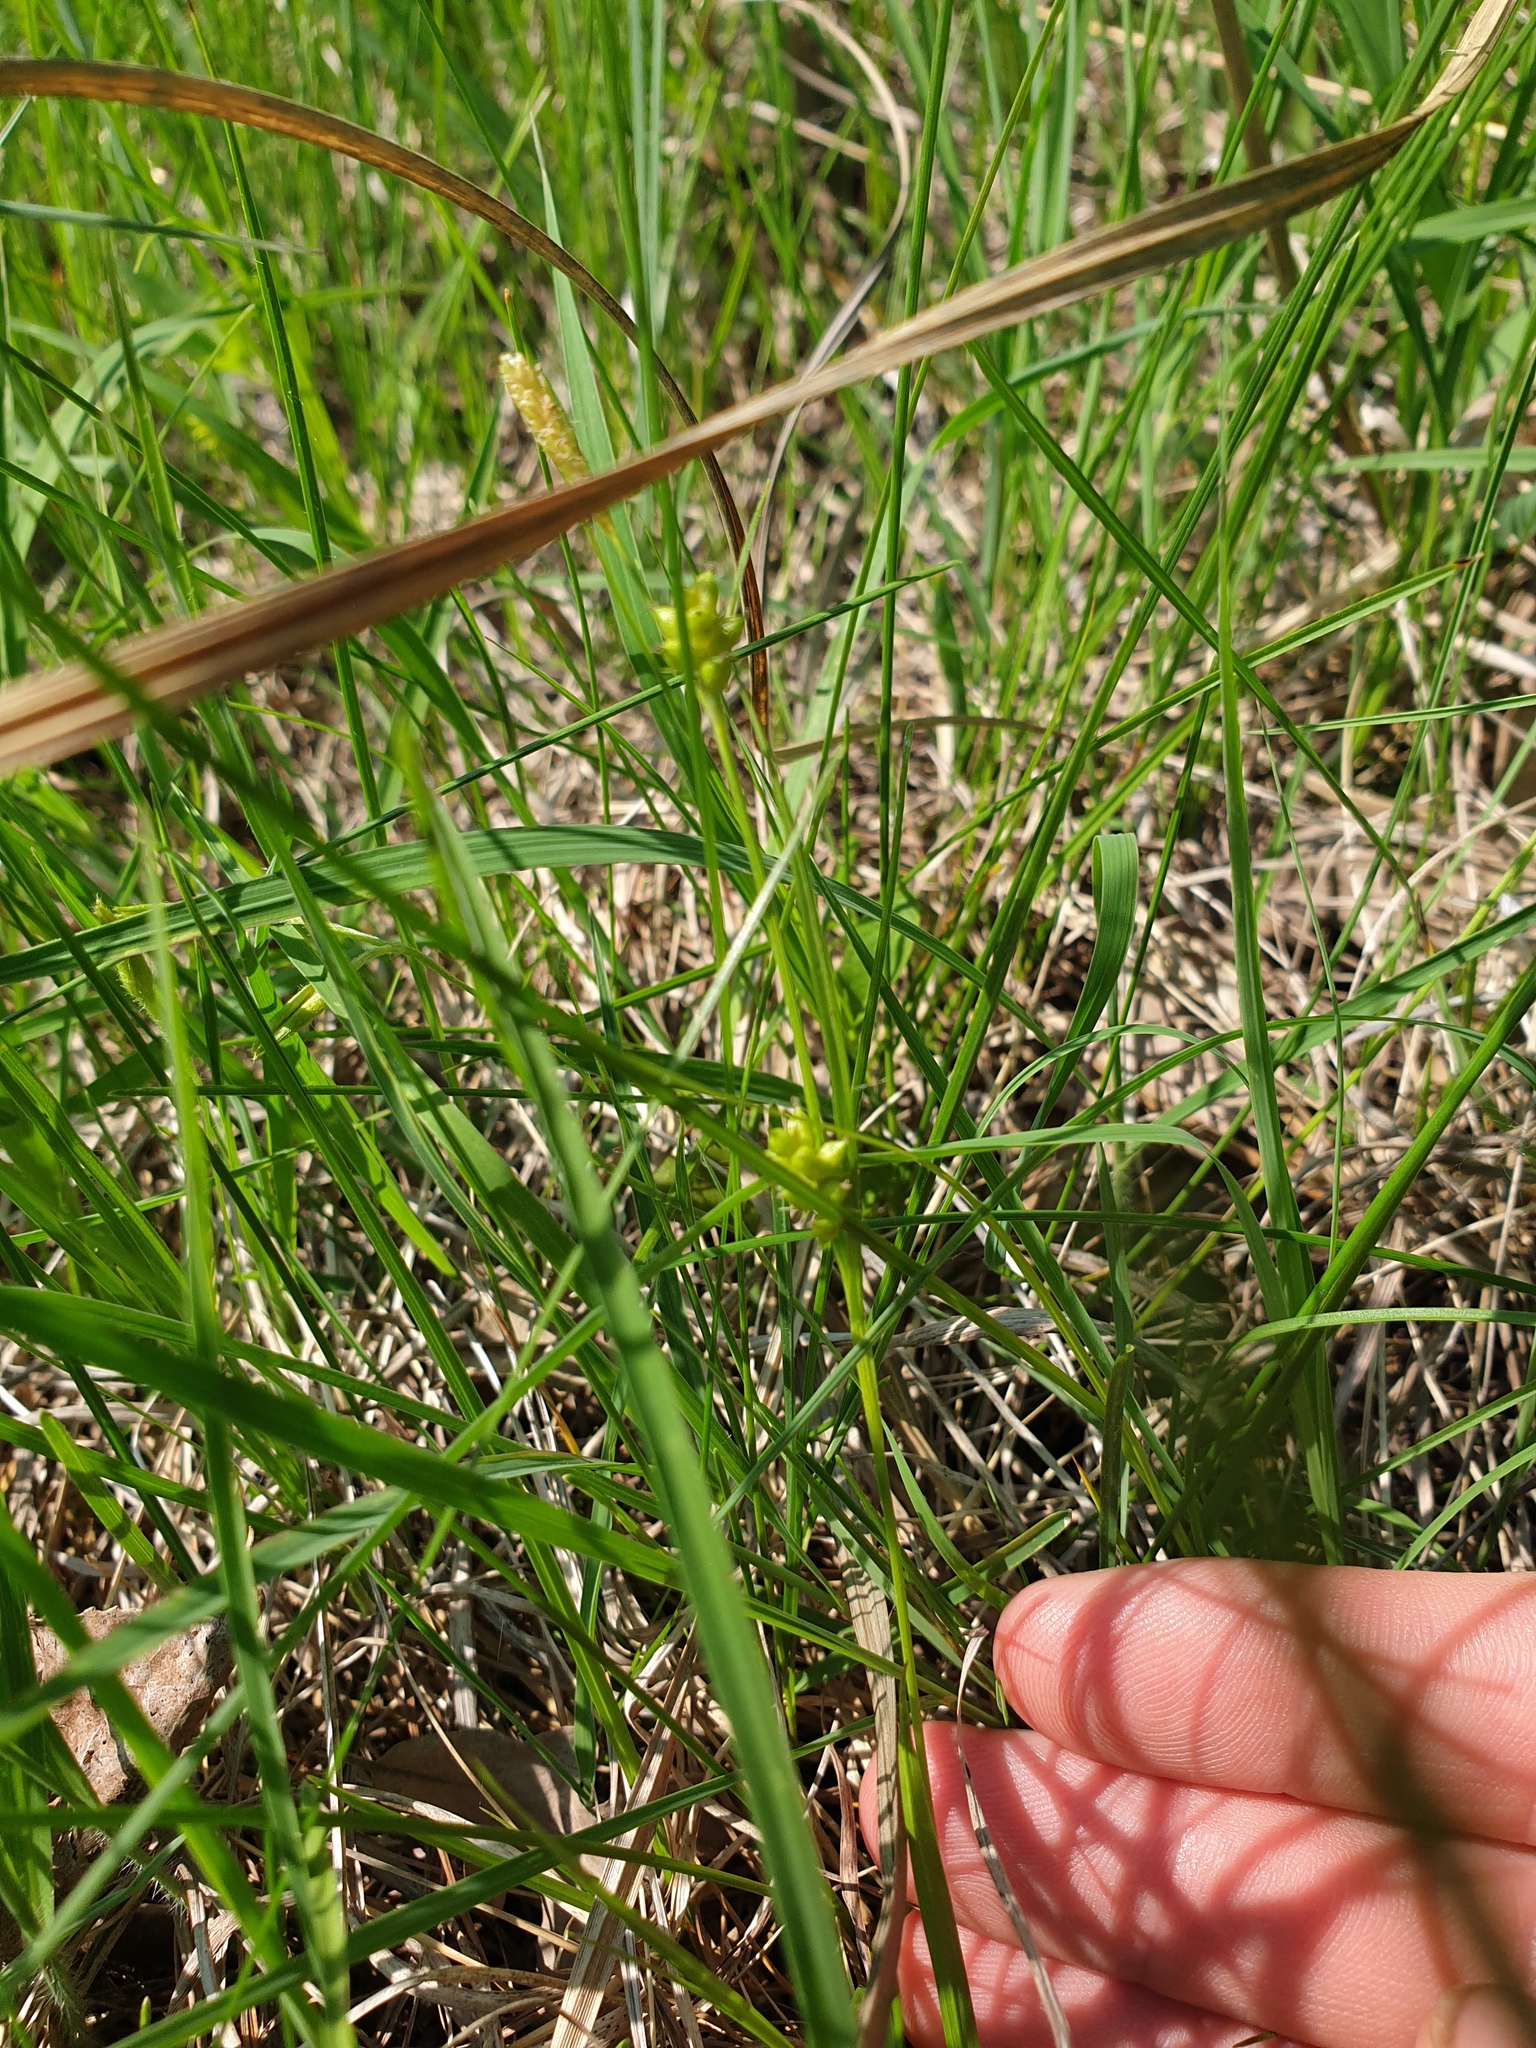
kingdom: Plantae
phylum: Tracheophyta
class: Liliopsida
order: Poales
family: Cyperaceae
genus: Carex
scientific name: Carex conoidea
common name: Cone shaped sedge
